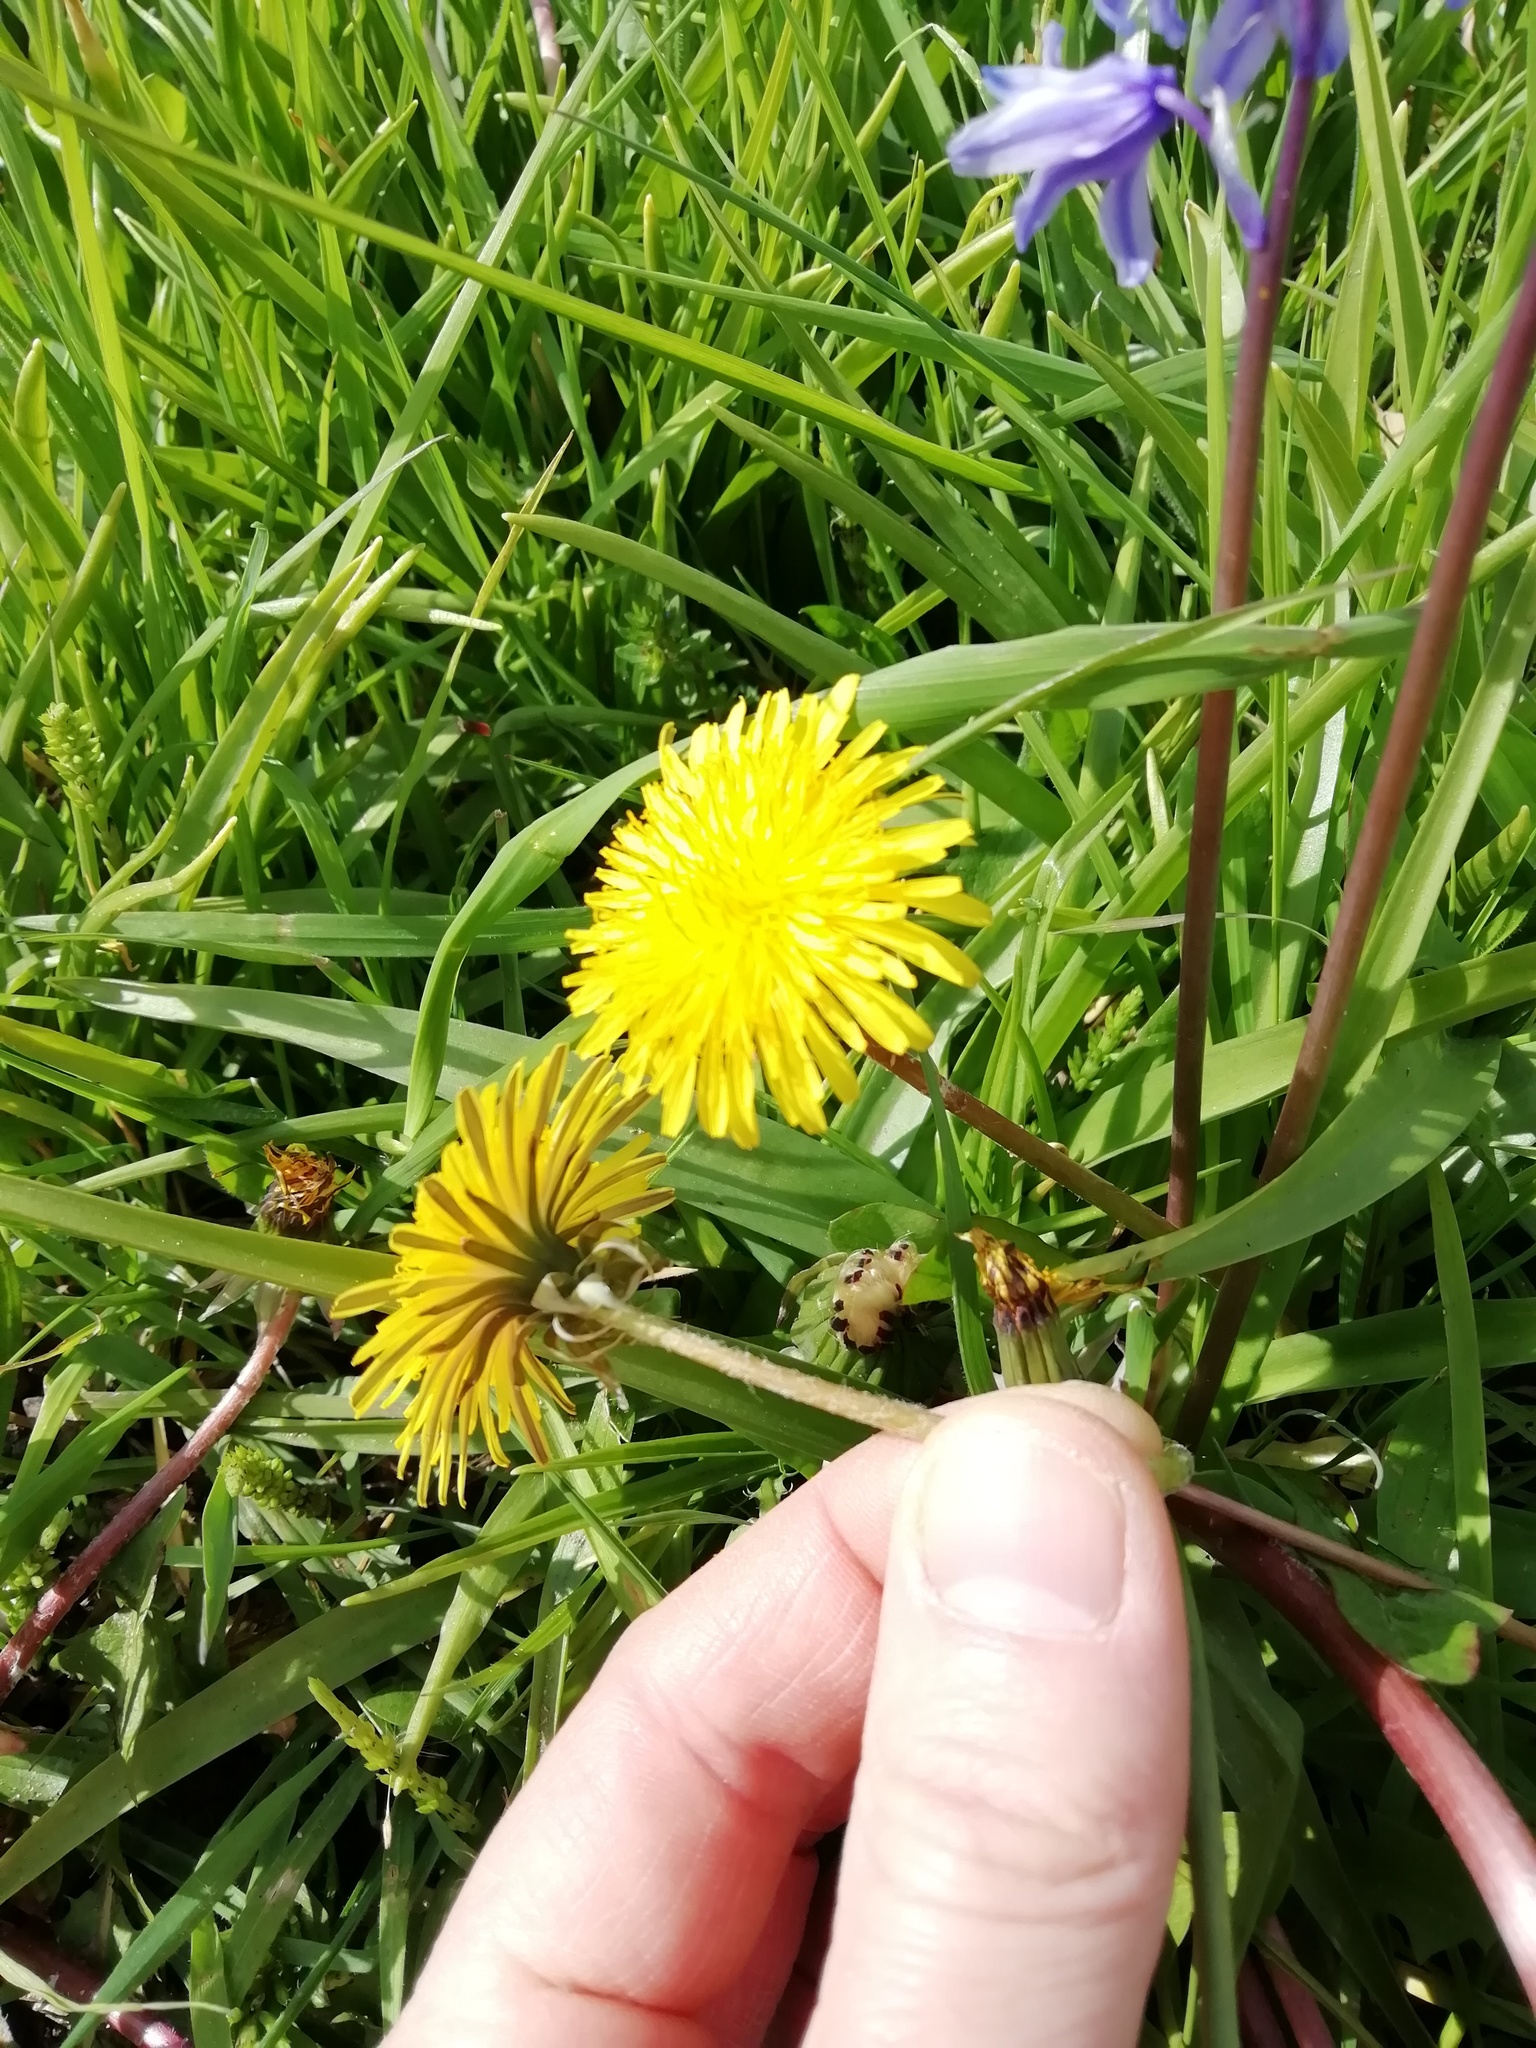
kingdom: Plantae
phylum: Tracheophyta
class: Magnoliopsida
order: Asterales
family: Asteraceae
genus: Taraxacum
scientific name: Taraxacum officinale
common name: Common dandelion
